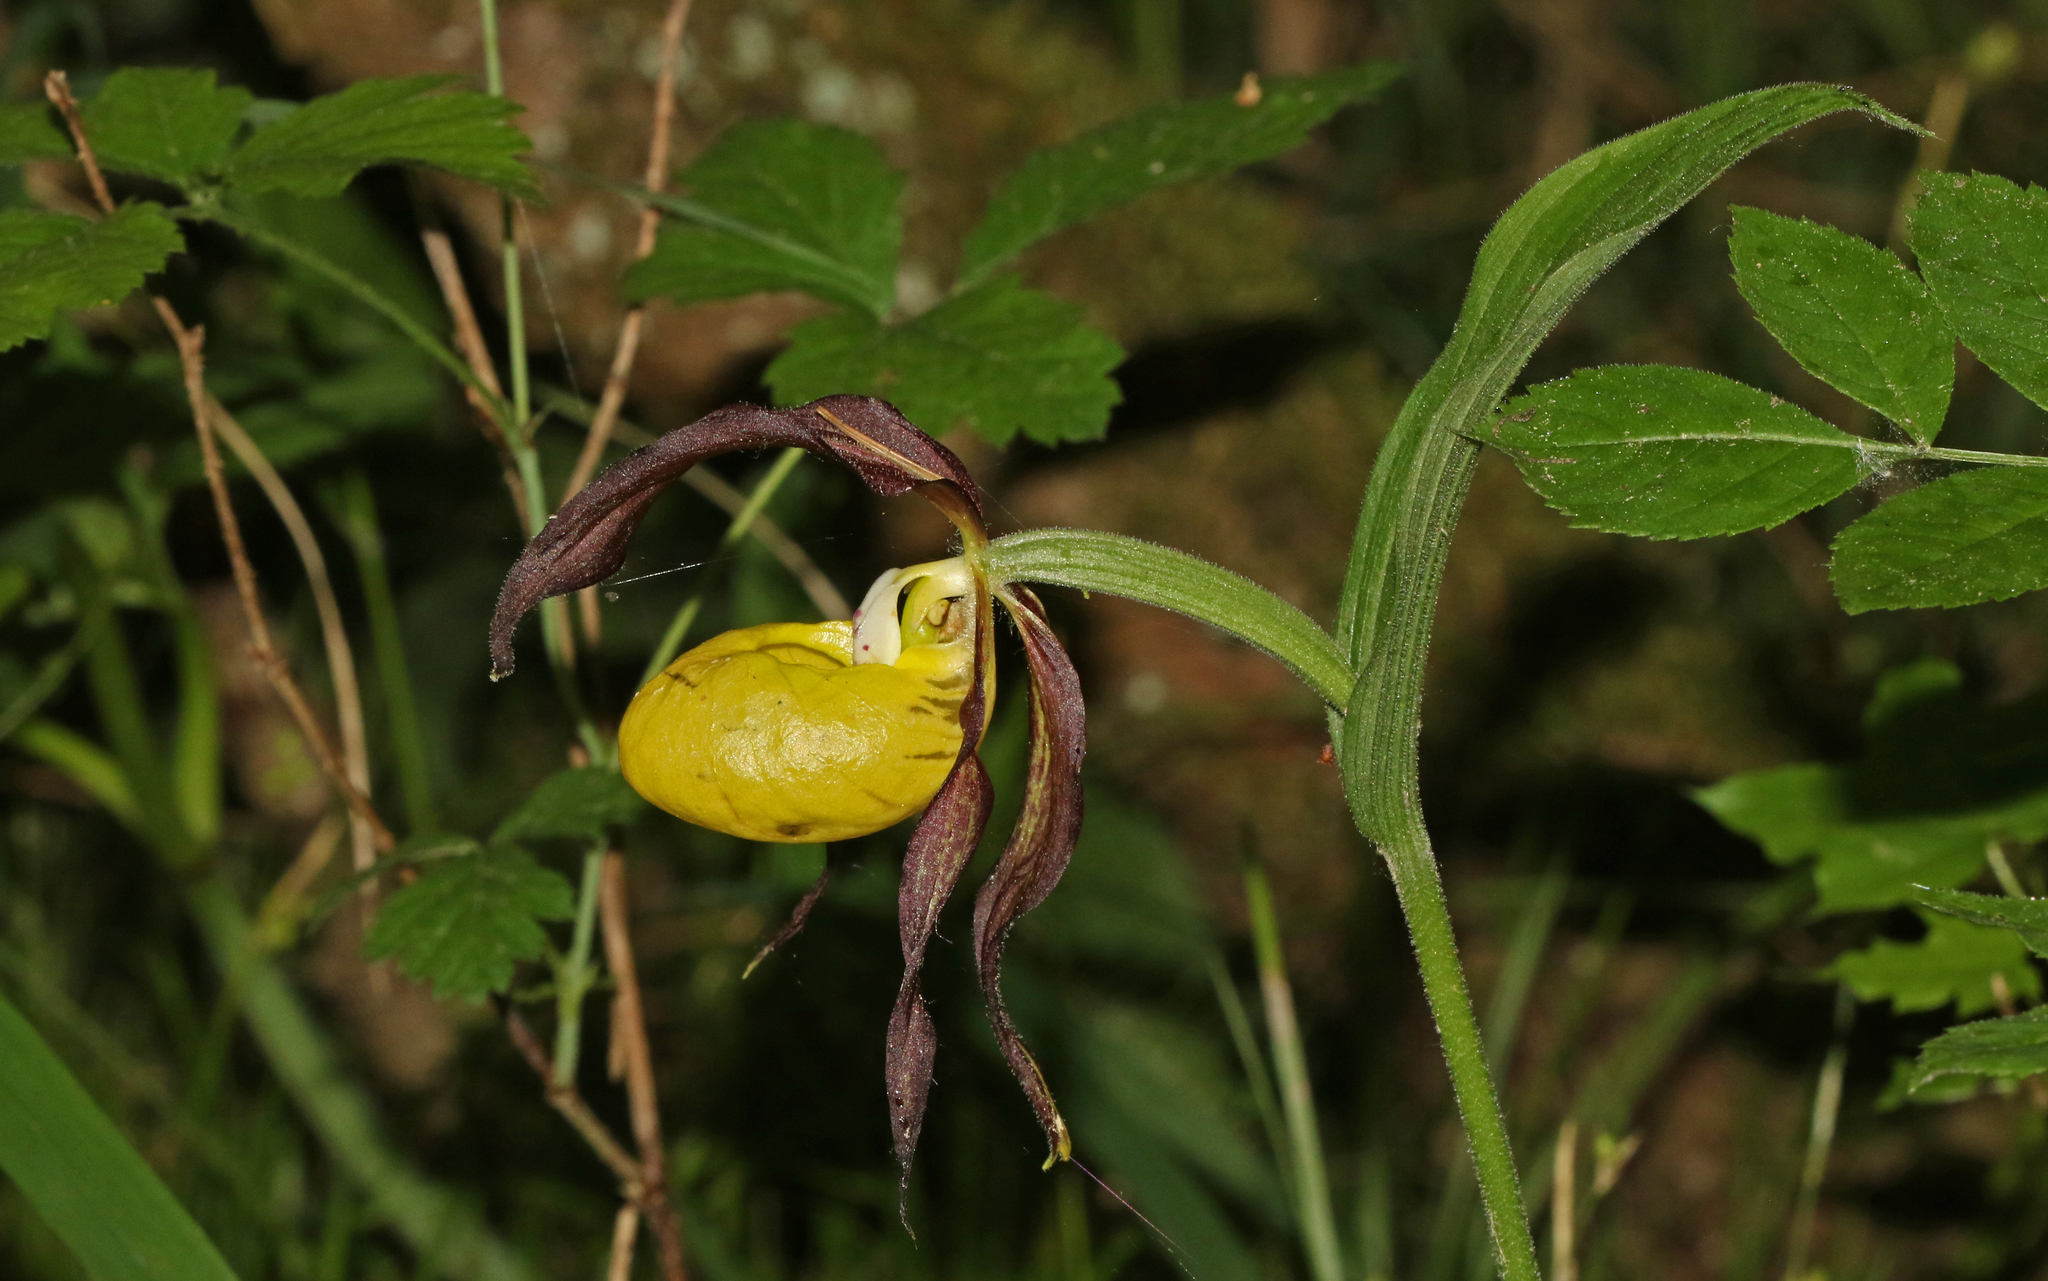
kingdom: Plantae
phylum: Tracheophyta
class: Liliopsida
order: Asparagales
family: Orchidaceae
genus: Cypripedium
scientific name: Cypripedium calceolus
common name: Lady's-slipper
